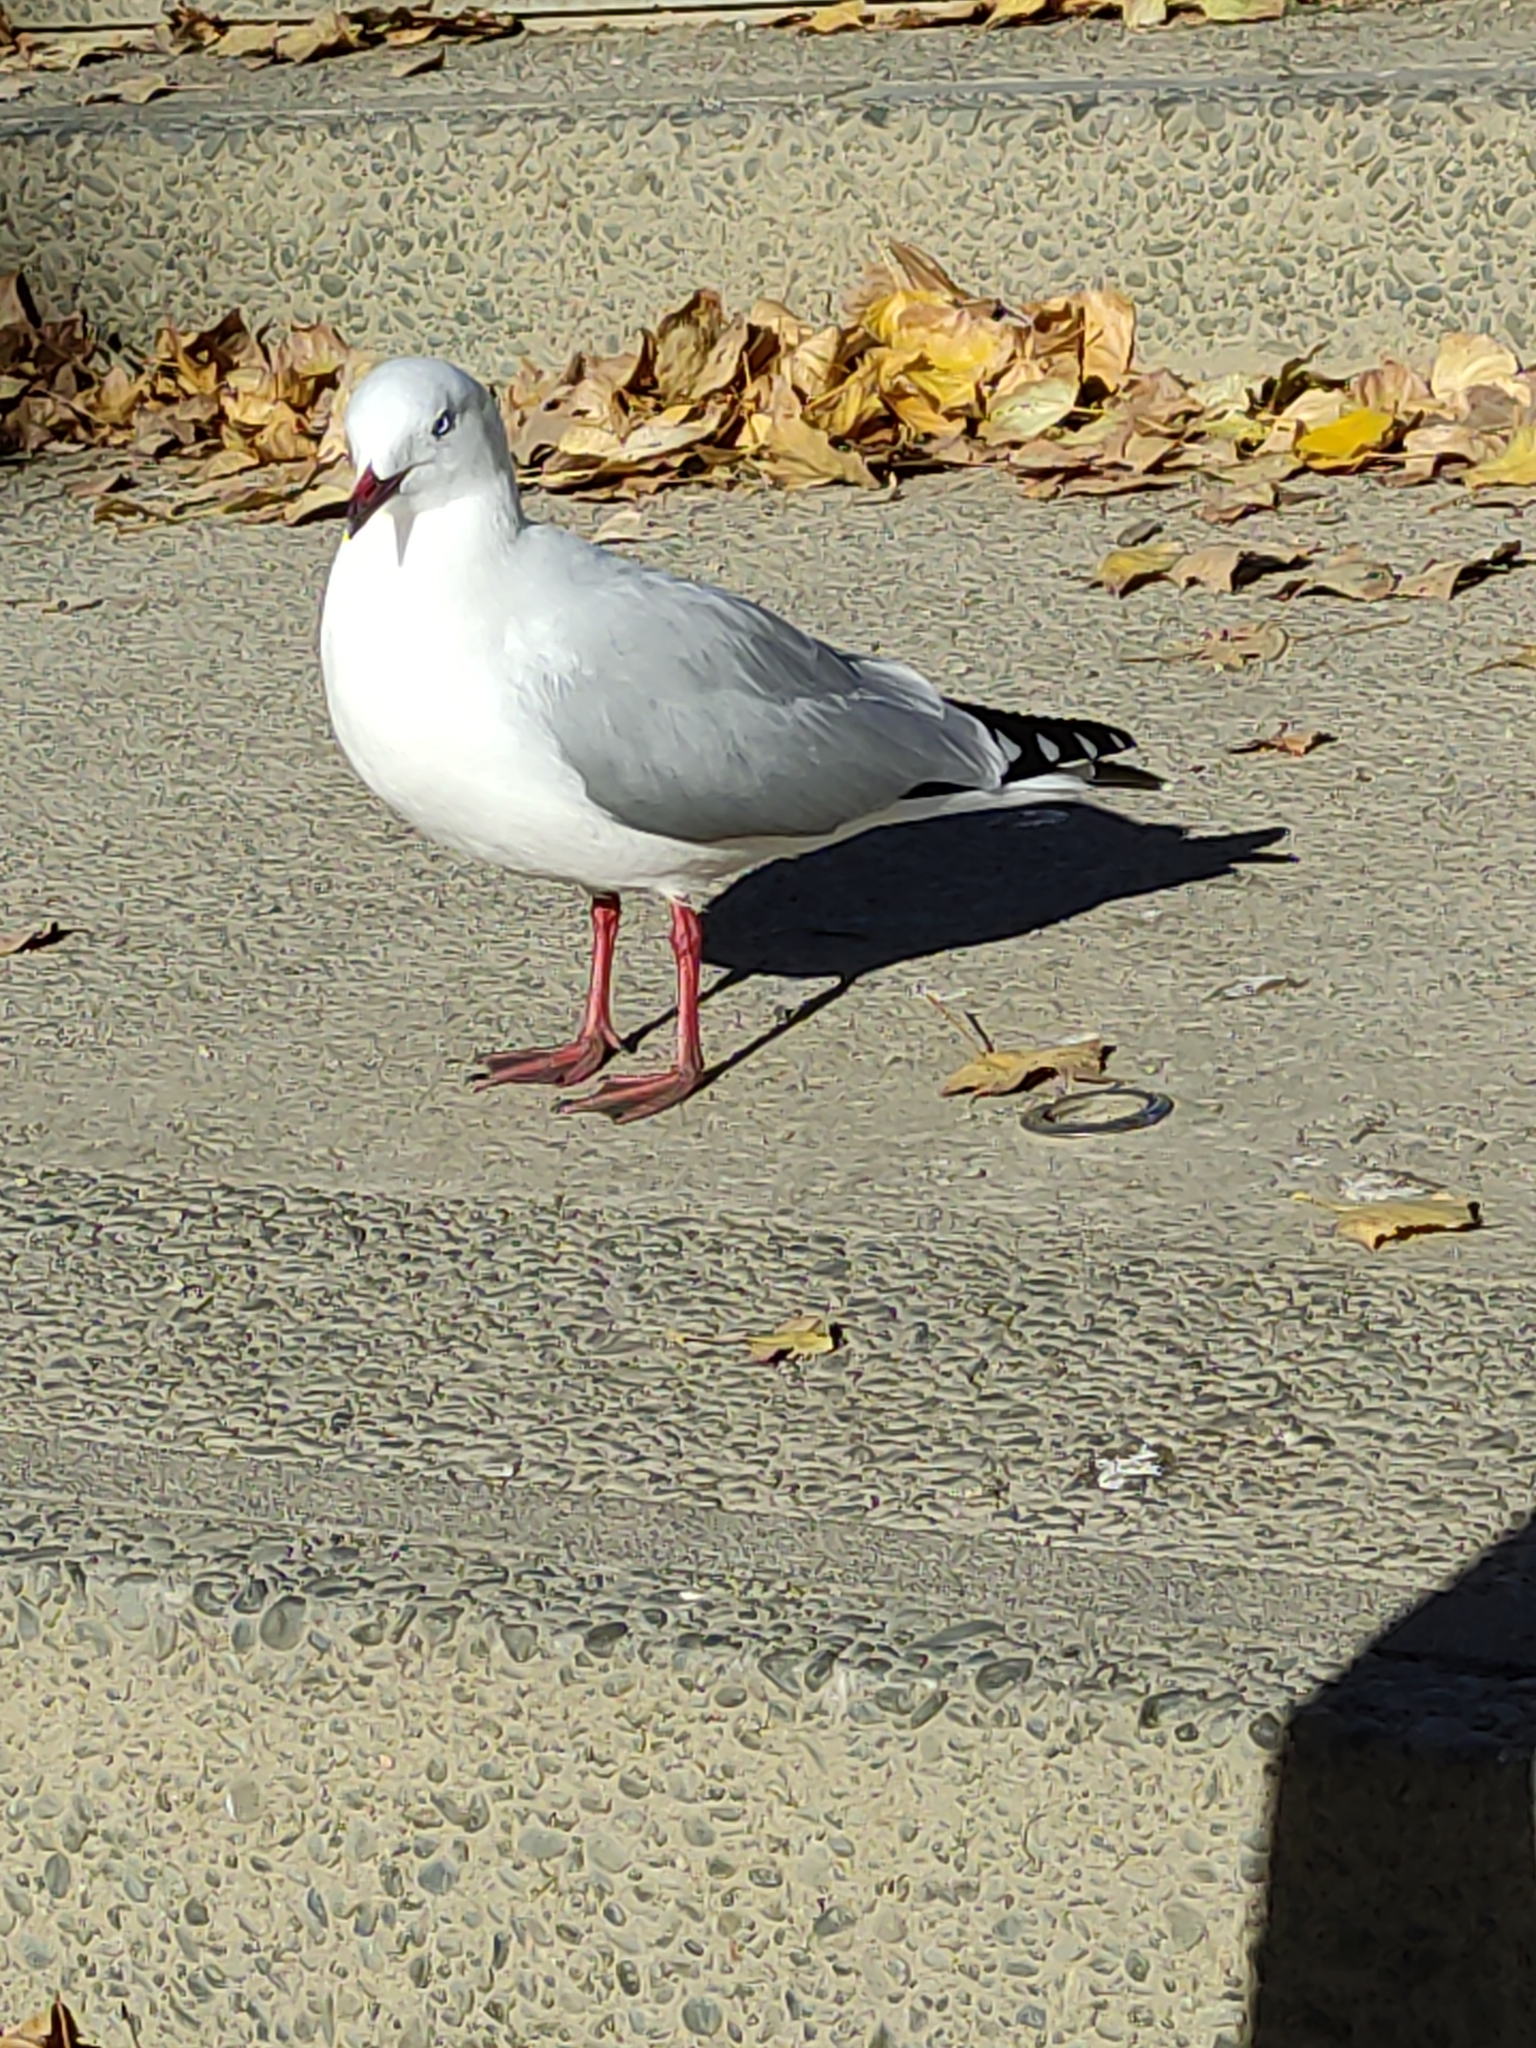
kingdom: Animalia
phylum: Chordata
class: Aves
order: Charadriiformes
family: Laridae
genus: Chroicocephalus
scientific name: Chroicocephalus novaehollandiae
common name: Silver gull
